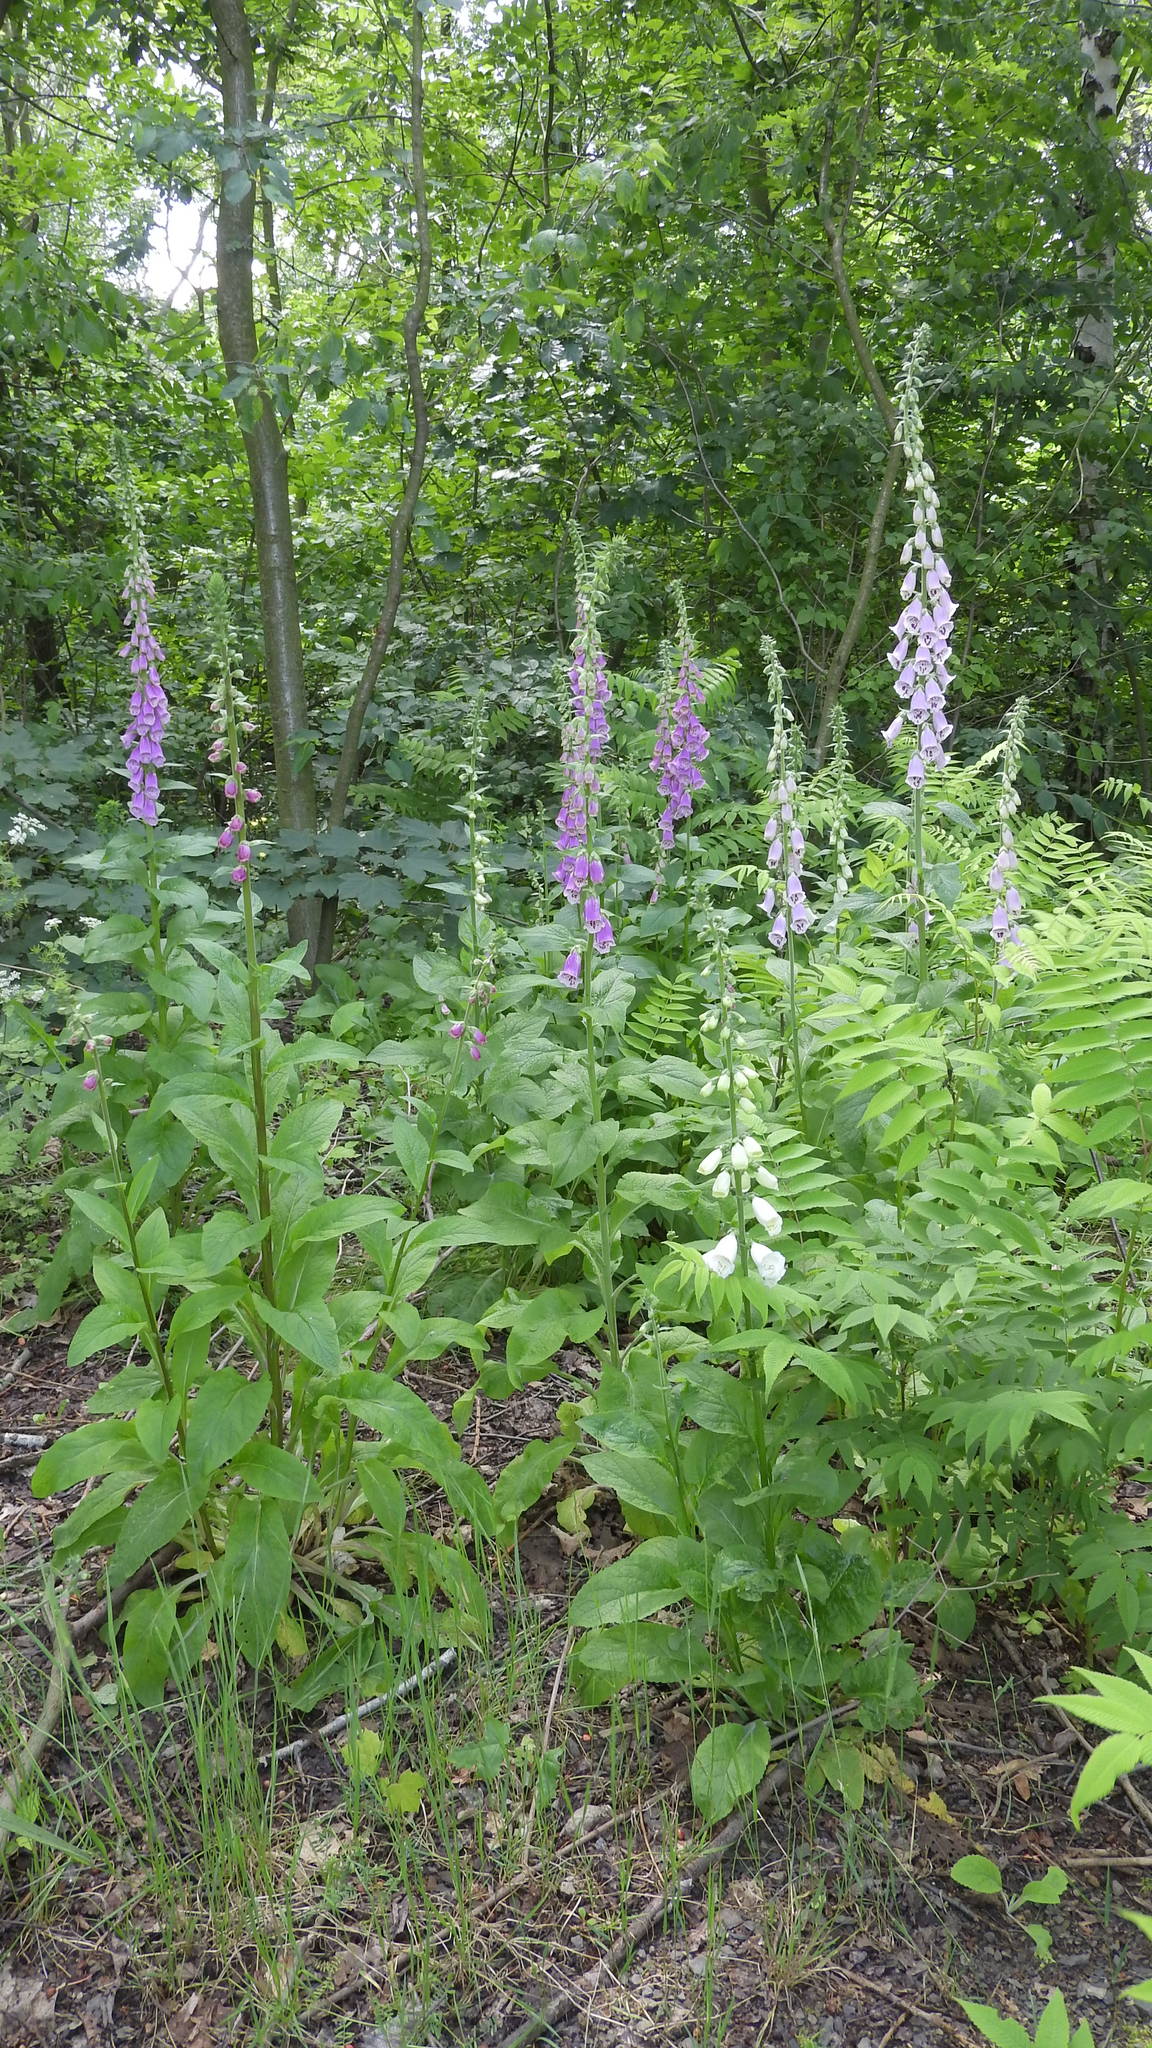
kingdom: Plantae
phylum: Tracheophyta
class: Magnoliopsida
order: Lamiales
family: Plantaginaceae
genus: Digitalis
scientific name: Digitalis purpurea
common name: Foxglove
